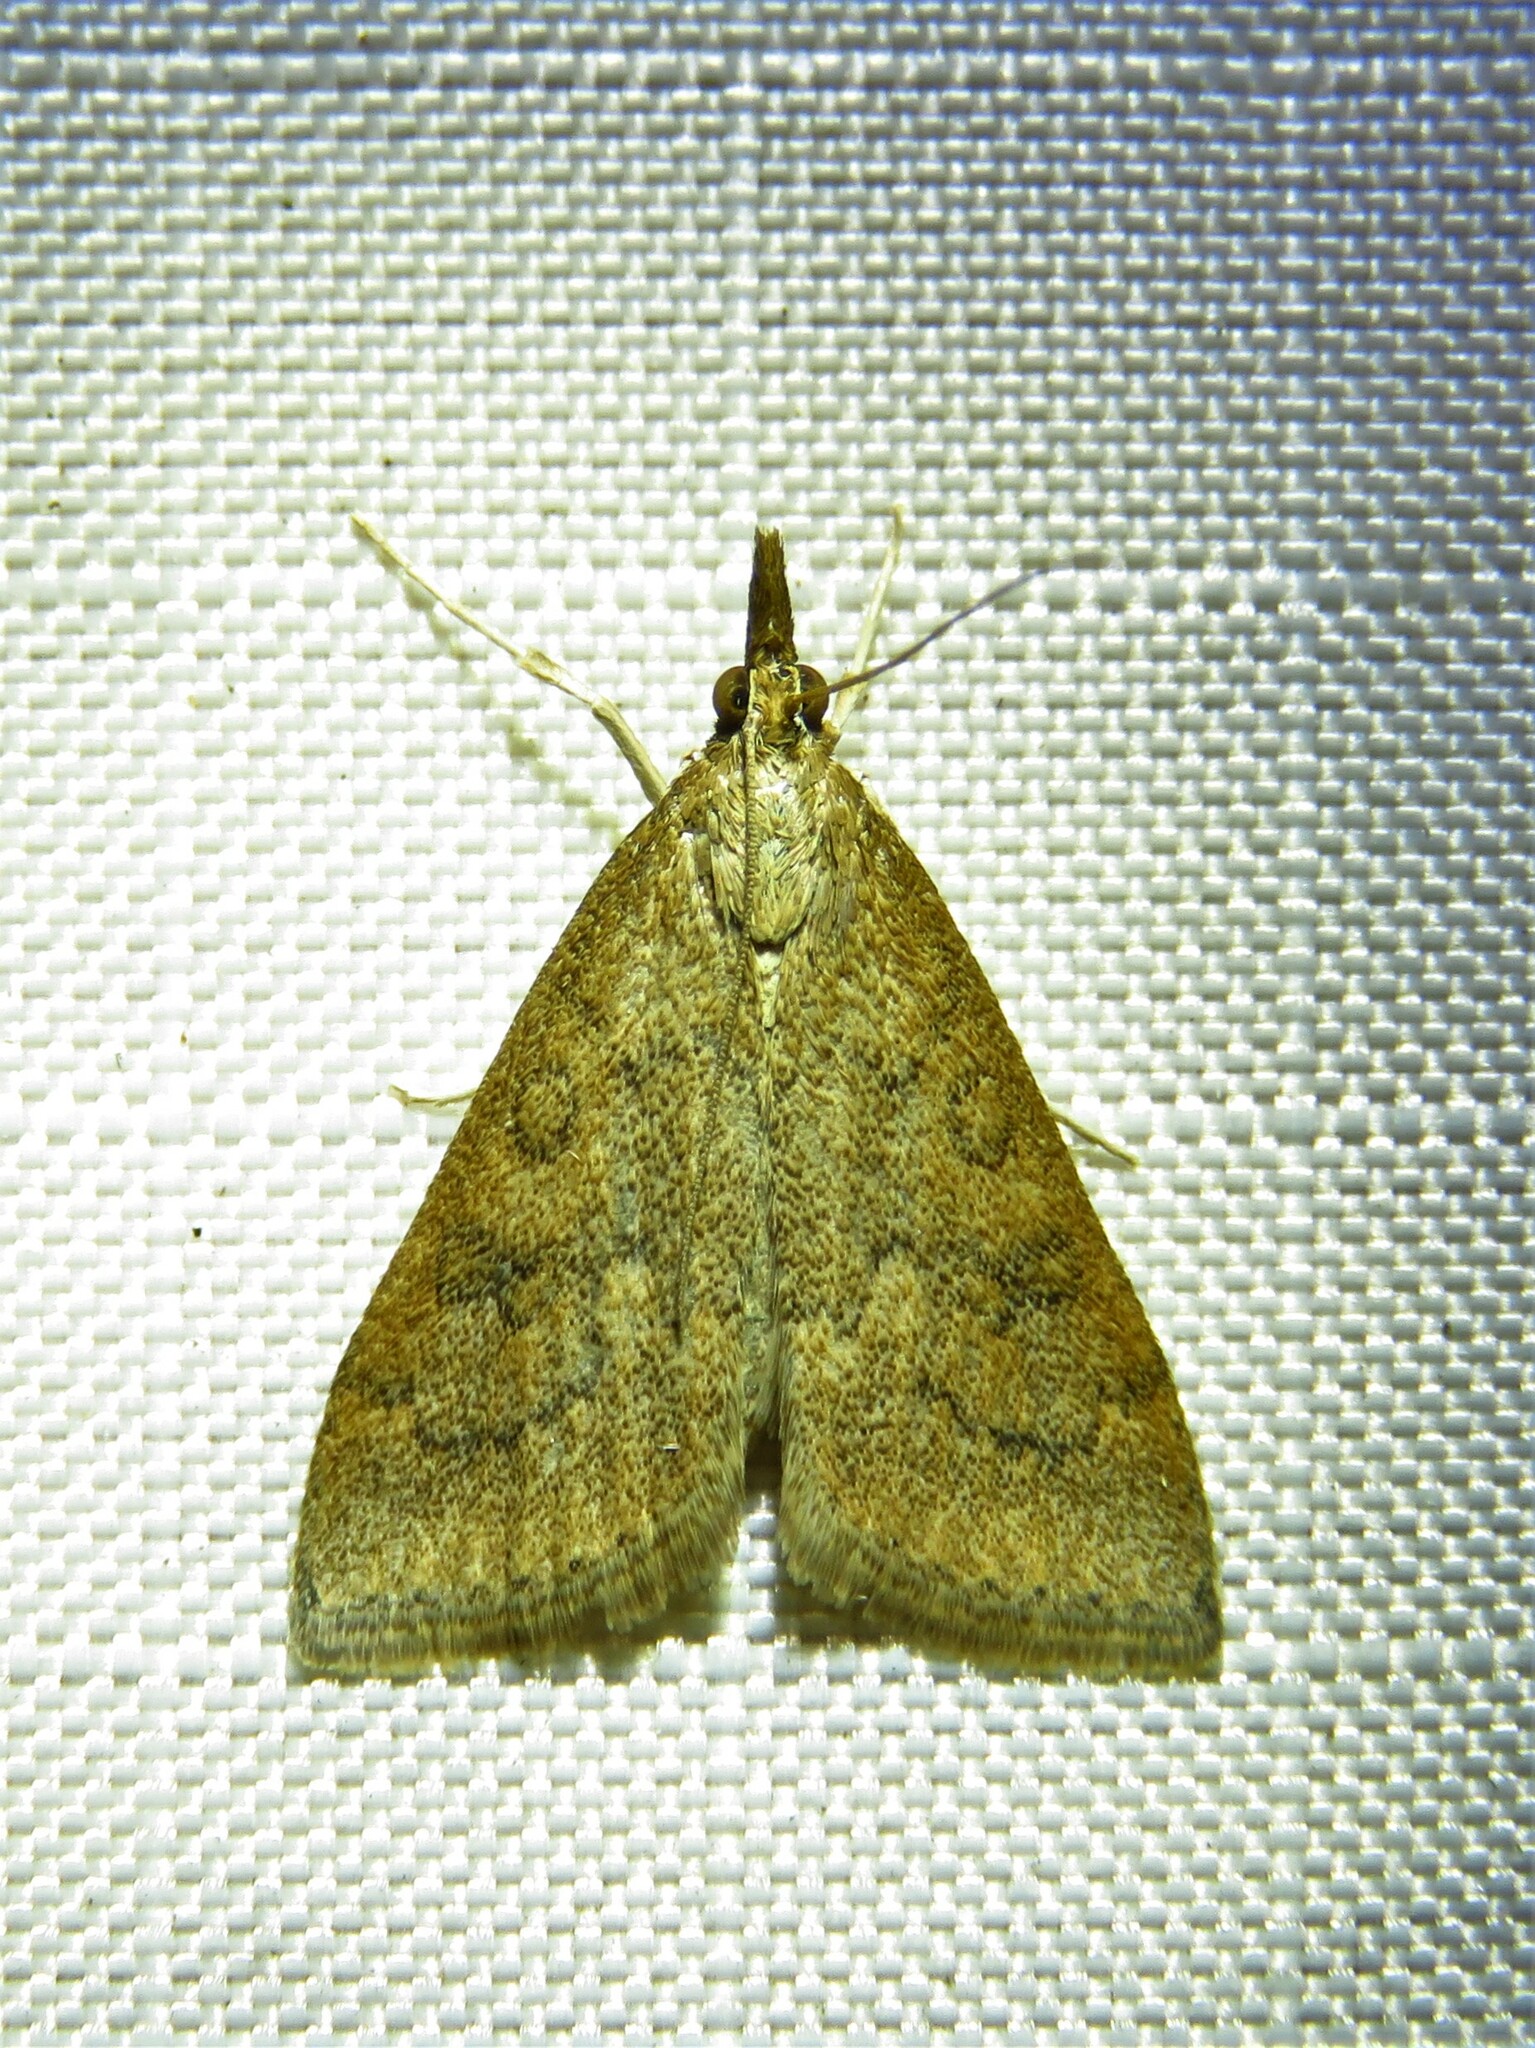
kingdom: Animalia
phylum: Arthropoda
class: Insecta
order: Lepidoptera
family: Crambidae
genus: Udea
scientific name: Udea rubigalis
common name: Celery leaftier moth
